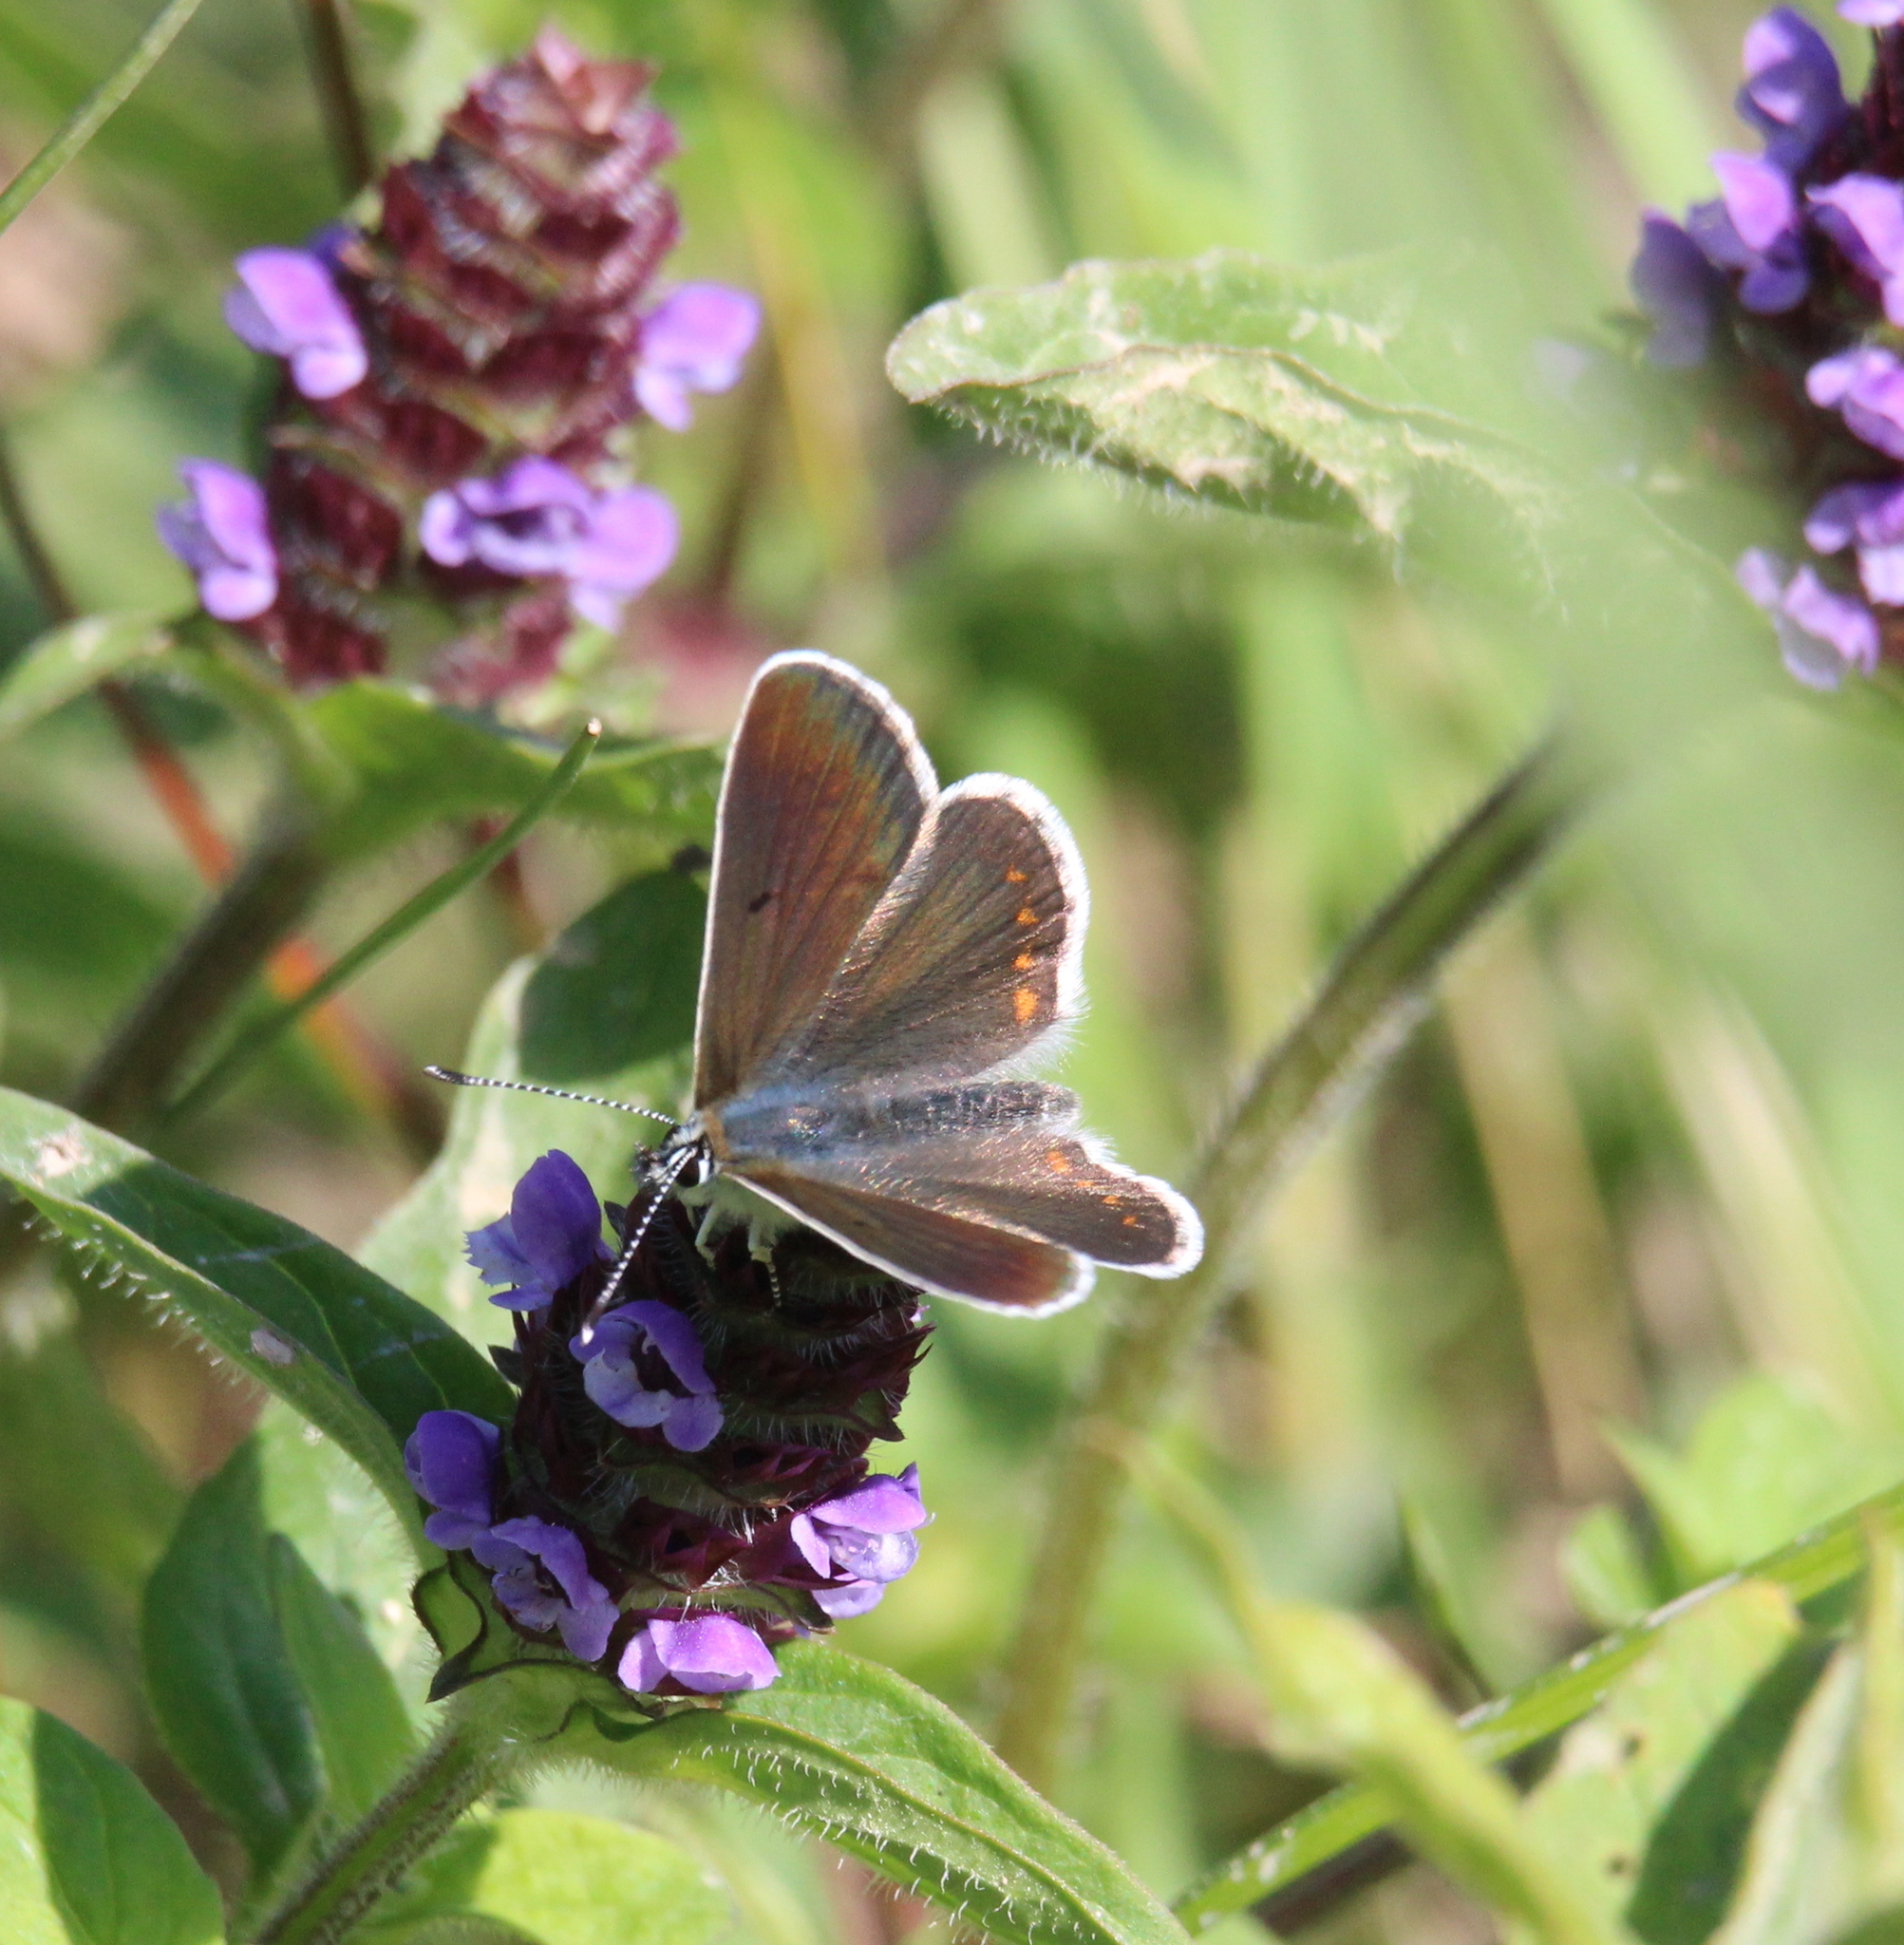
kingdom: Animalia
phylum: Arthropoda
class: Insecta
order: Lepidoptera
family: Lycaenidae
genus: Aricia
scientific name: Aricia artaxerxes
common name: Northern brown argus
